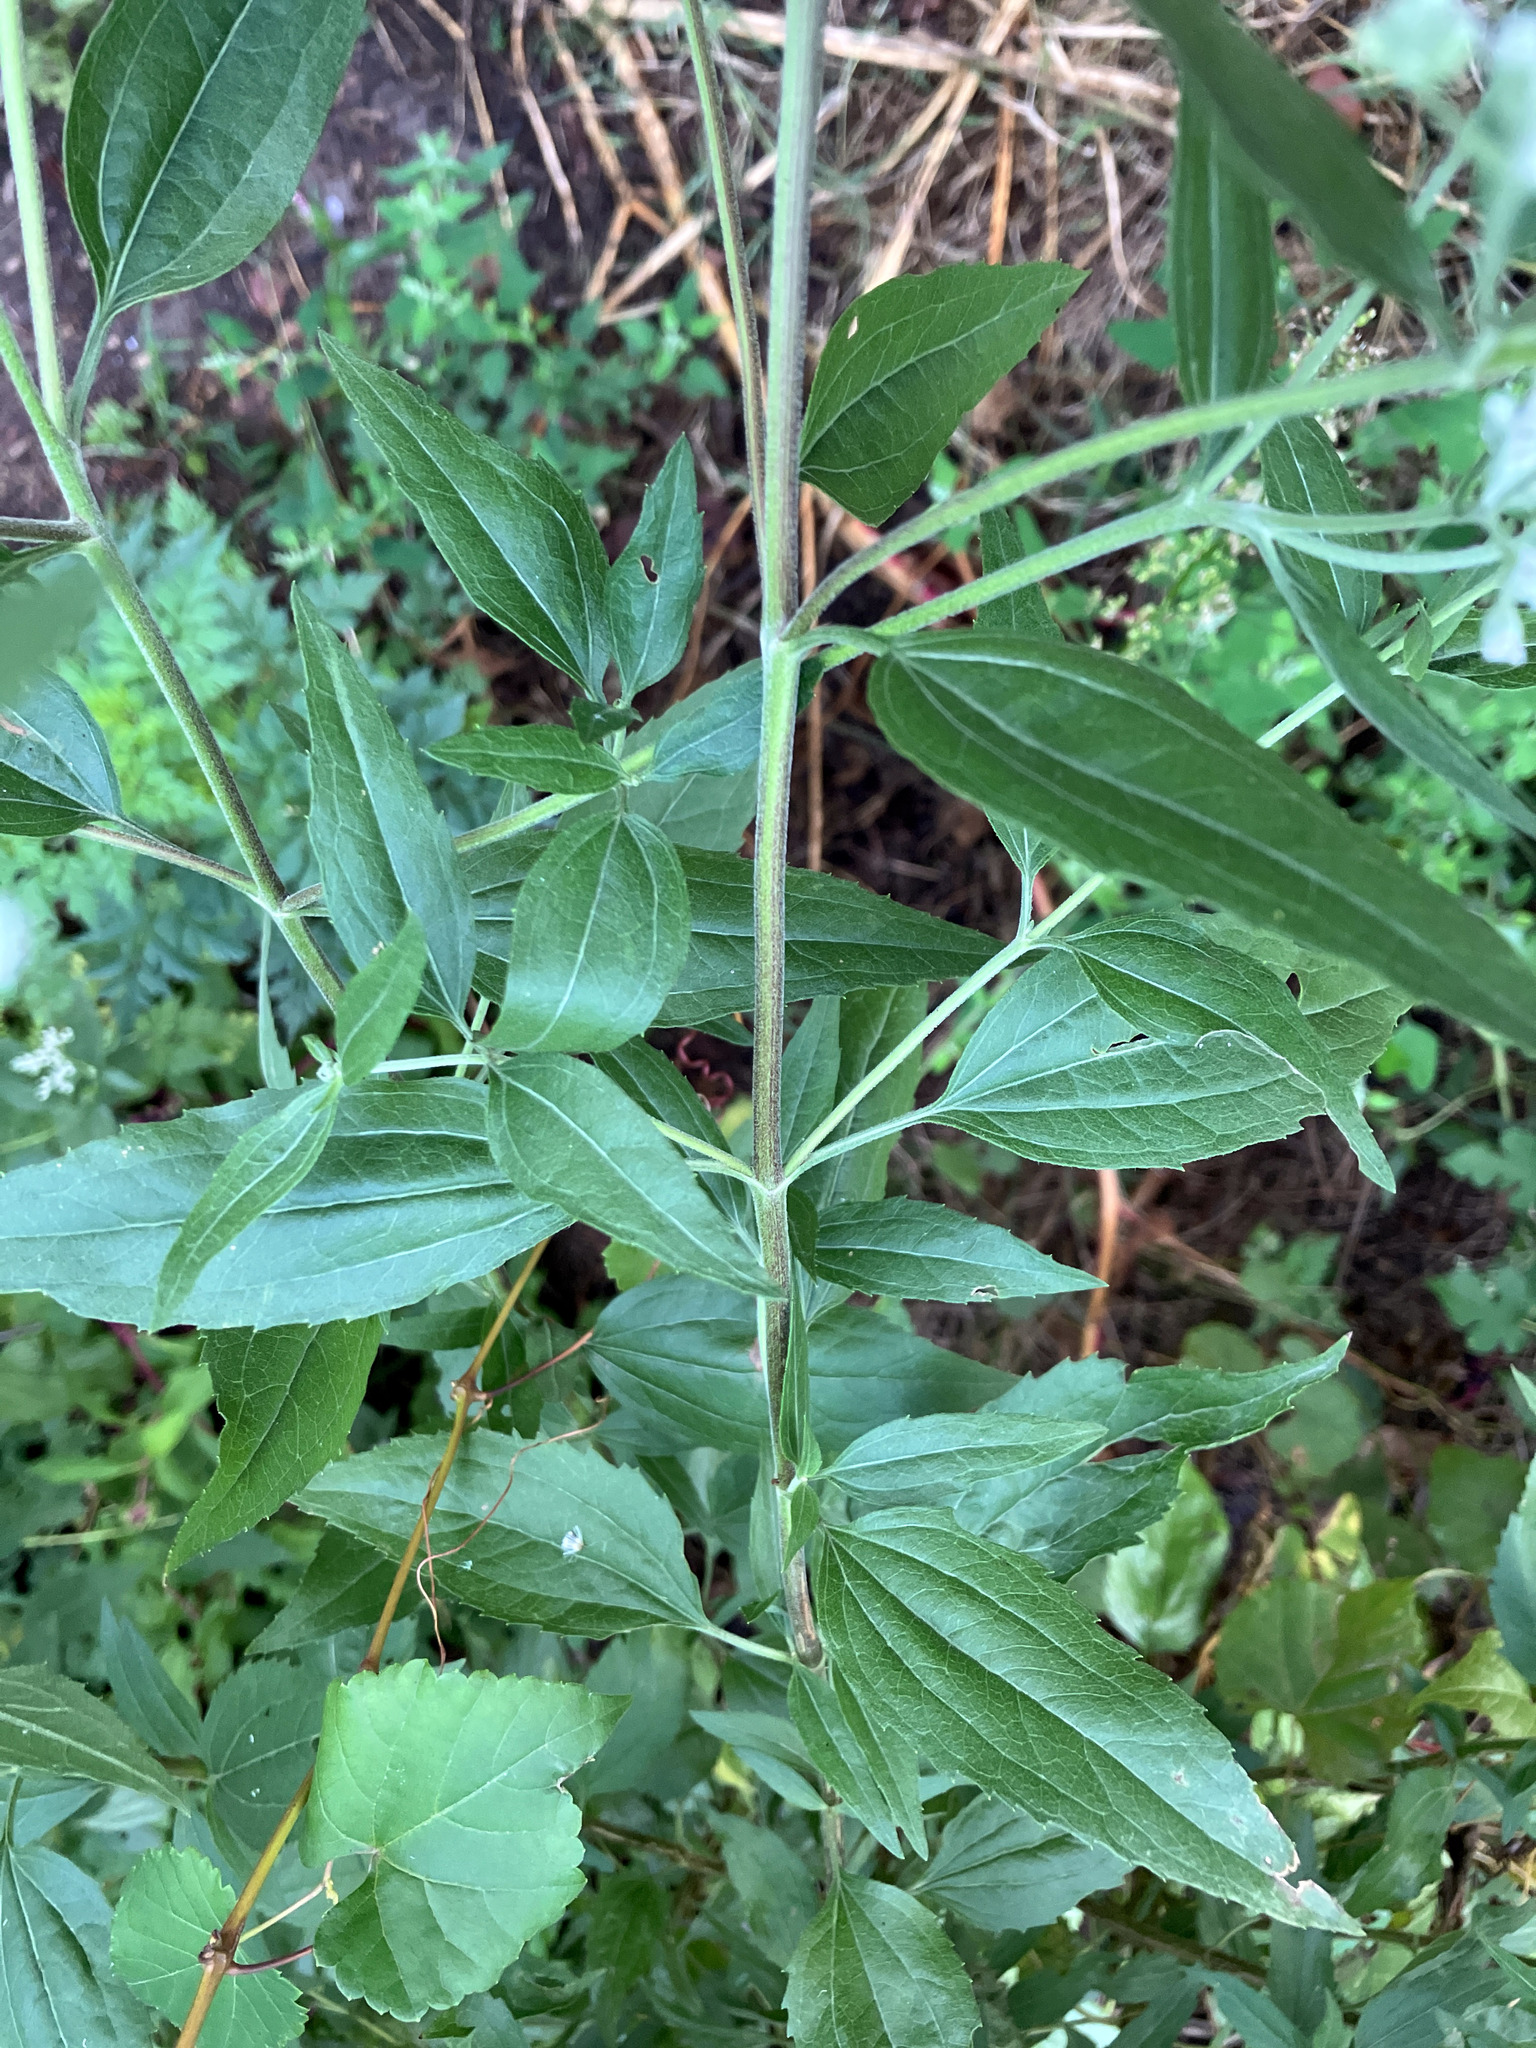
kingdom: Plantae
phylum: Tracheophyta
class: Magnoliopsida
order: Asterales
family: Asteraceae
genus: Eupatorium
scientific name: Eupatorium serotinum
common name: Late boneset
